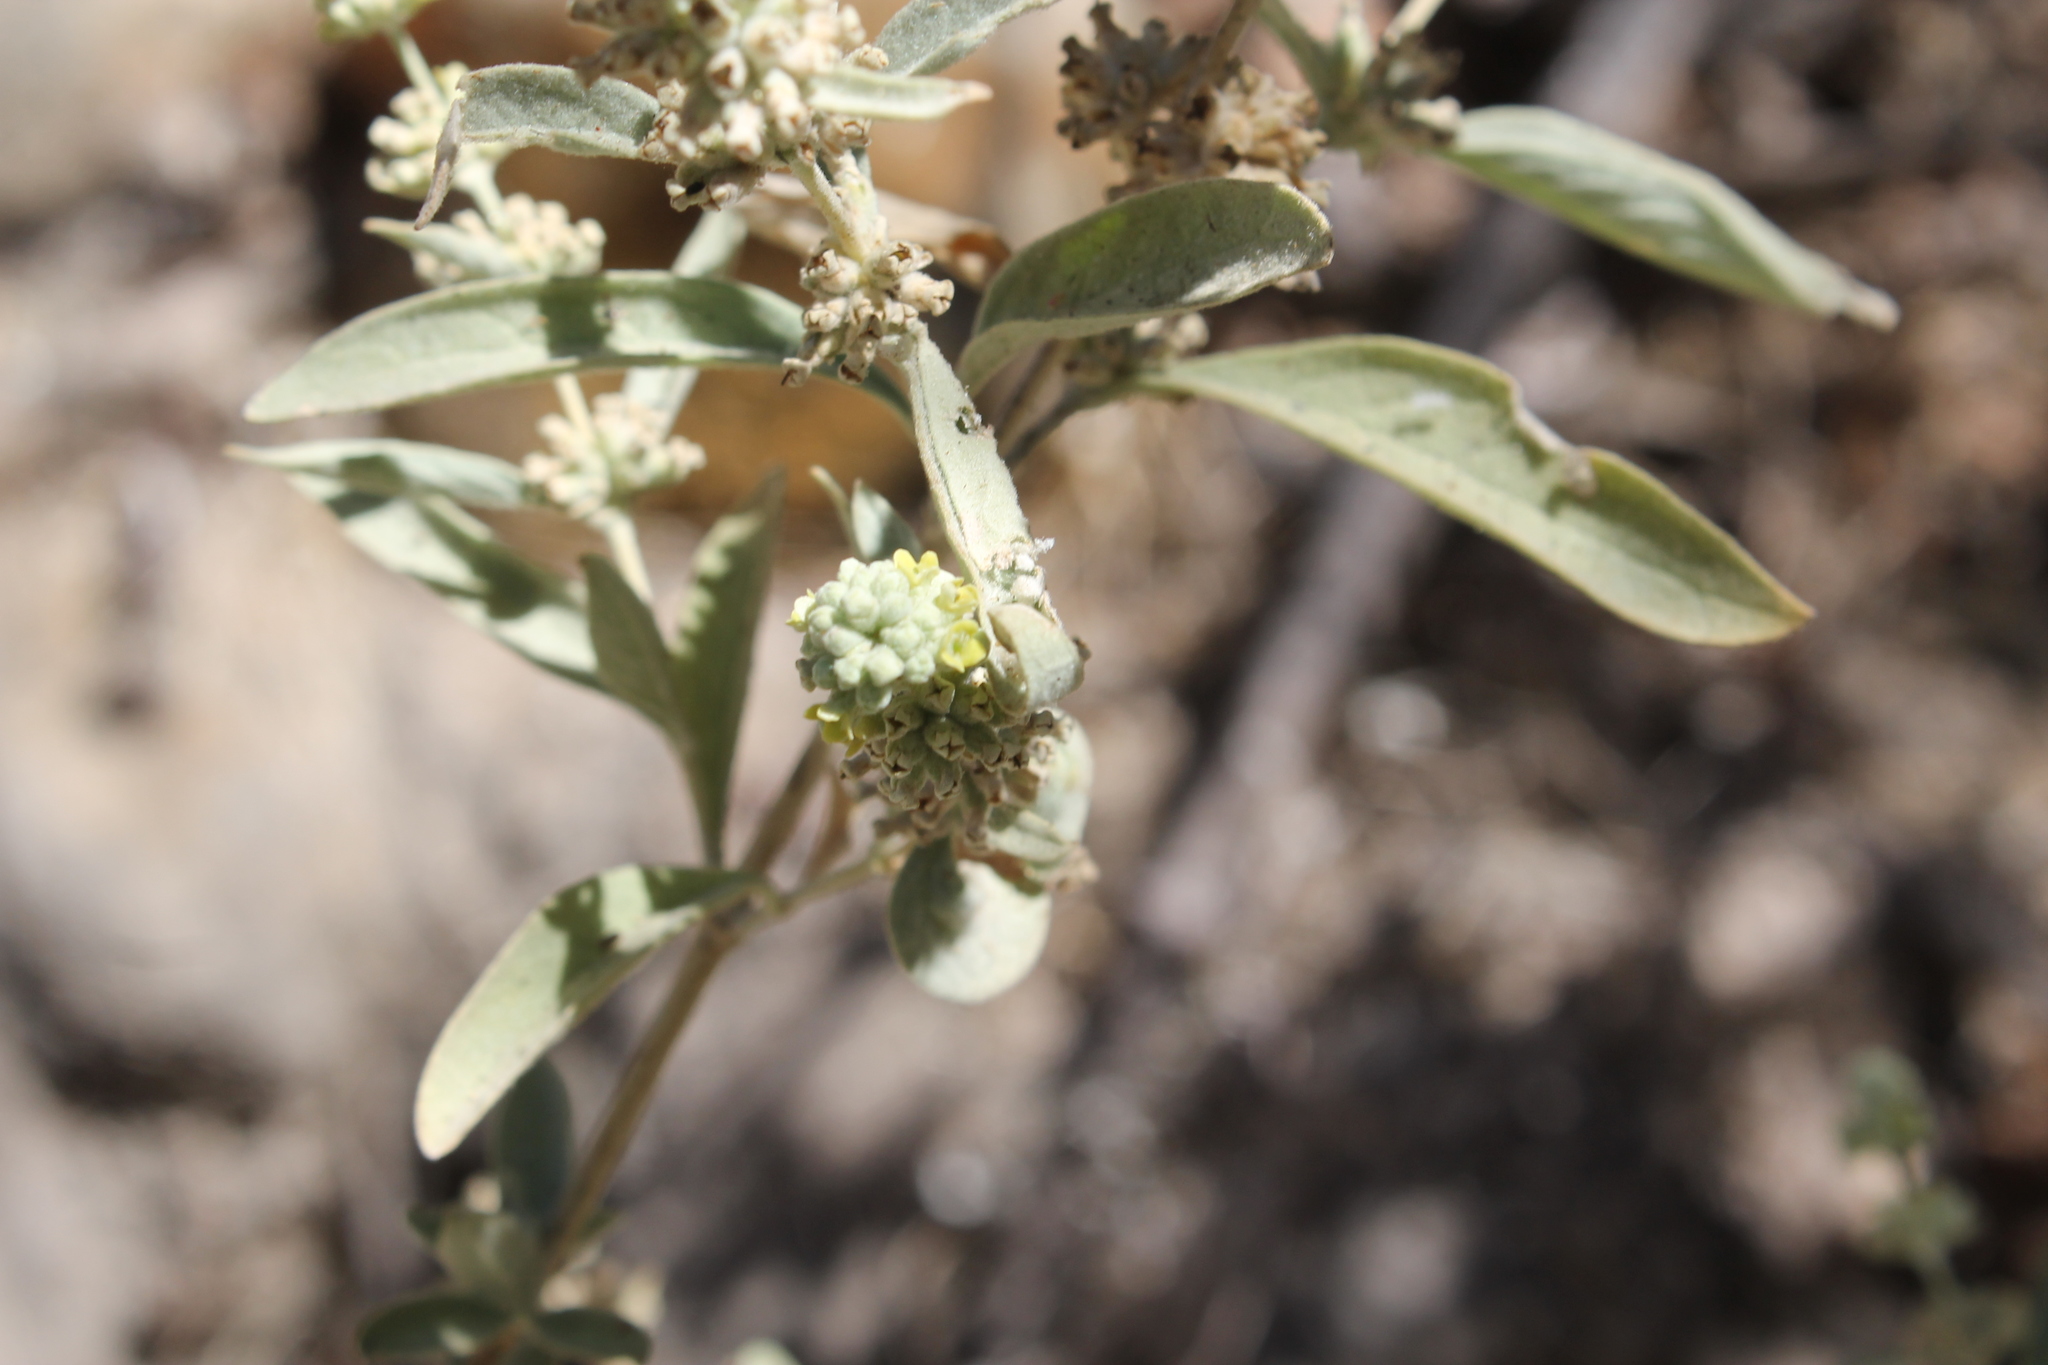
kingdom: Plantae
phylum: Tracheophyta
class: Magnoliopsida
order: Lamiales
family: Scrophulariaceae
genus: Buddleja
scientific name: Buddleja sessiliflora
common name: Rio grande butterfly-bush
